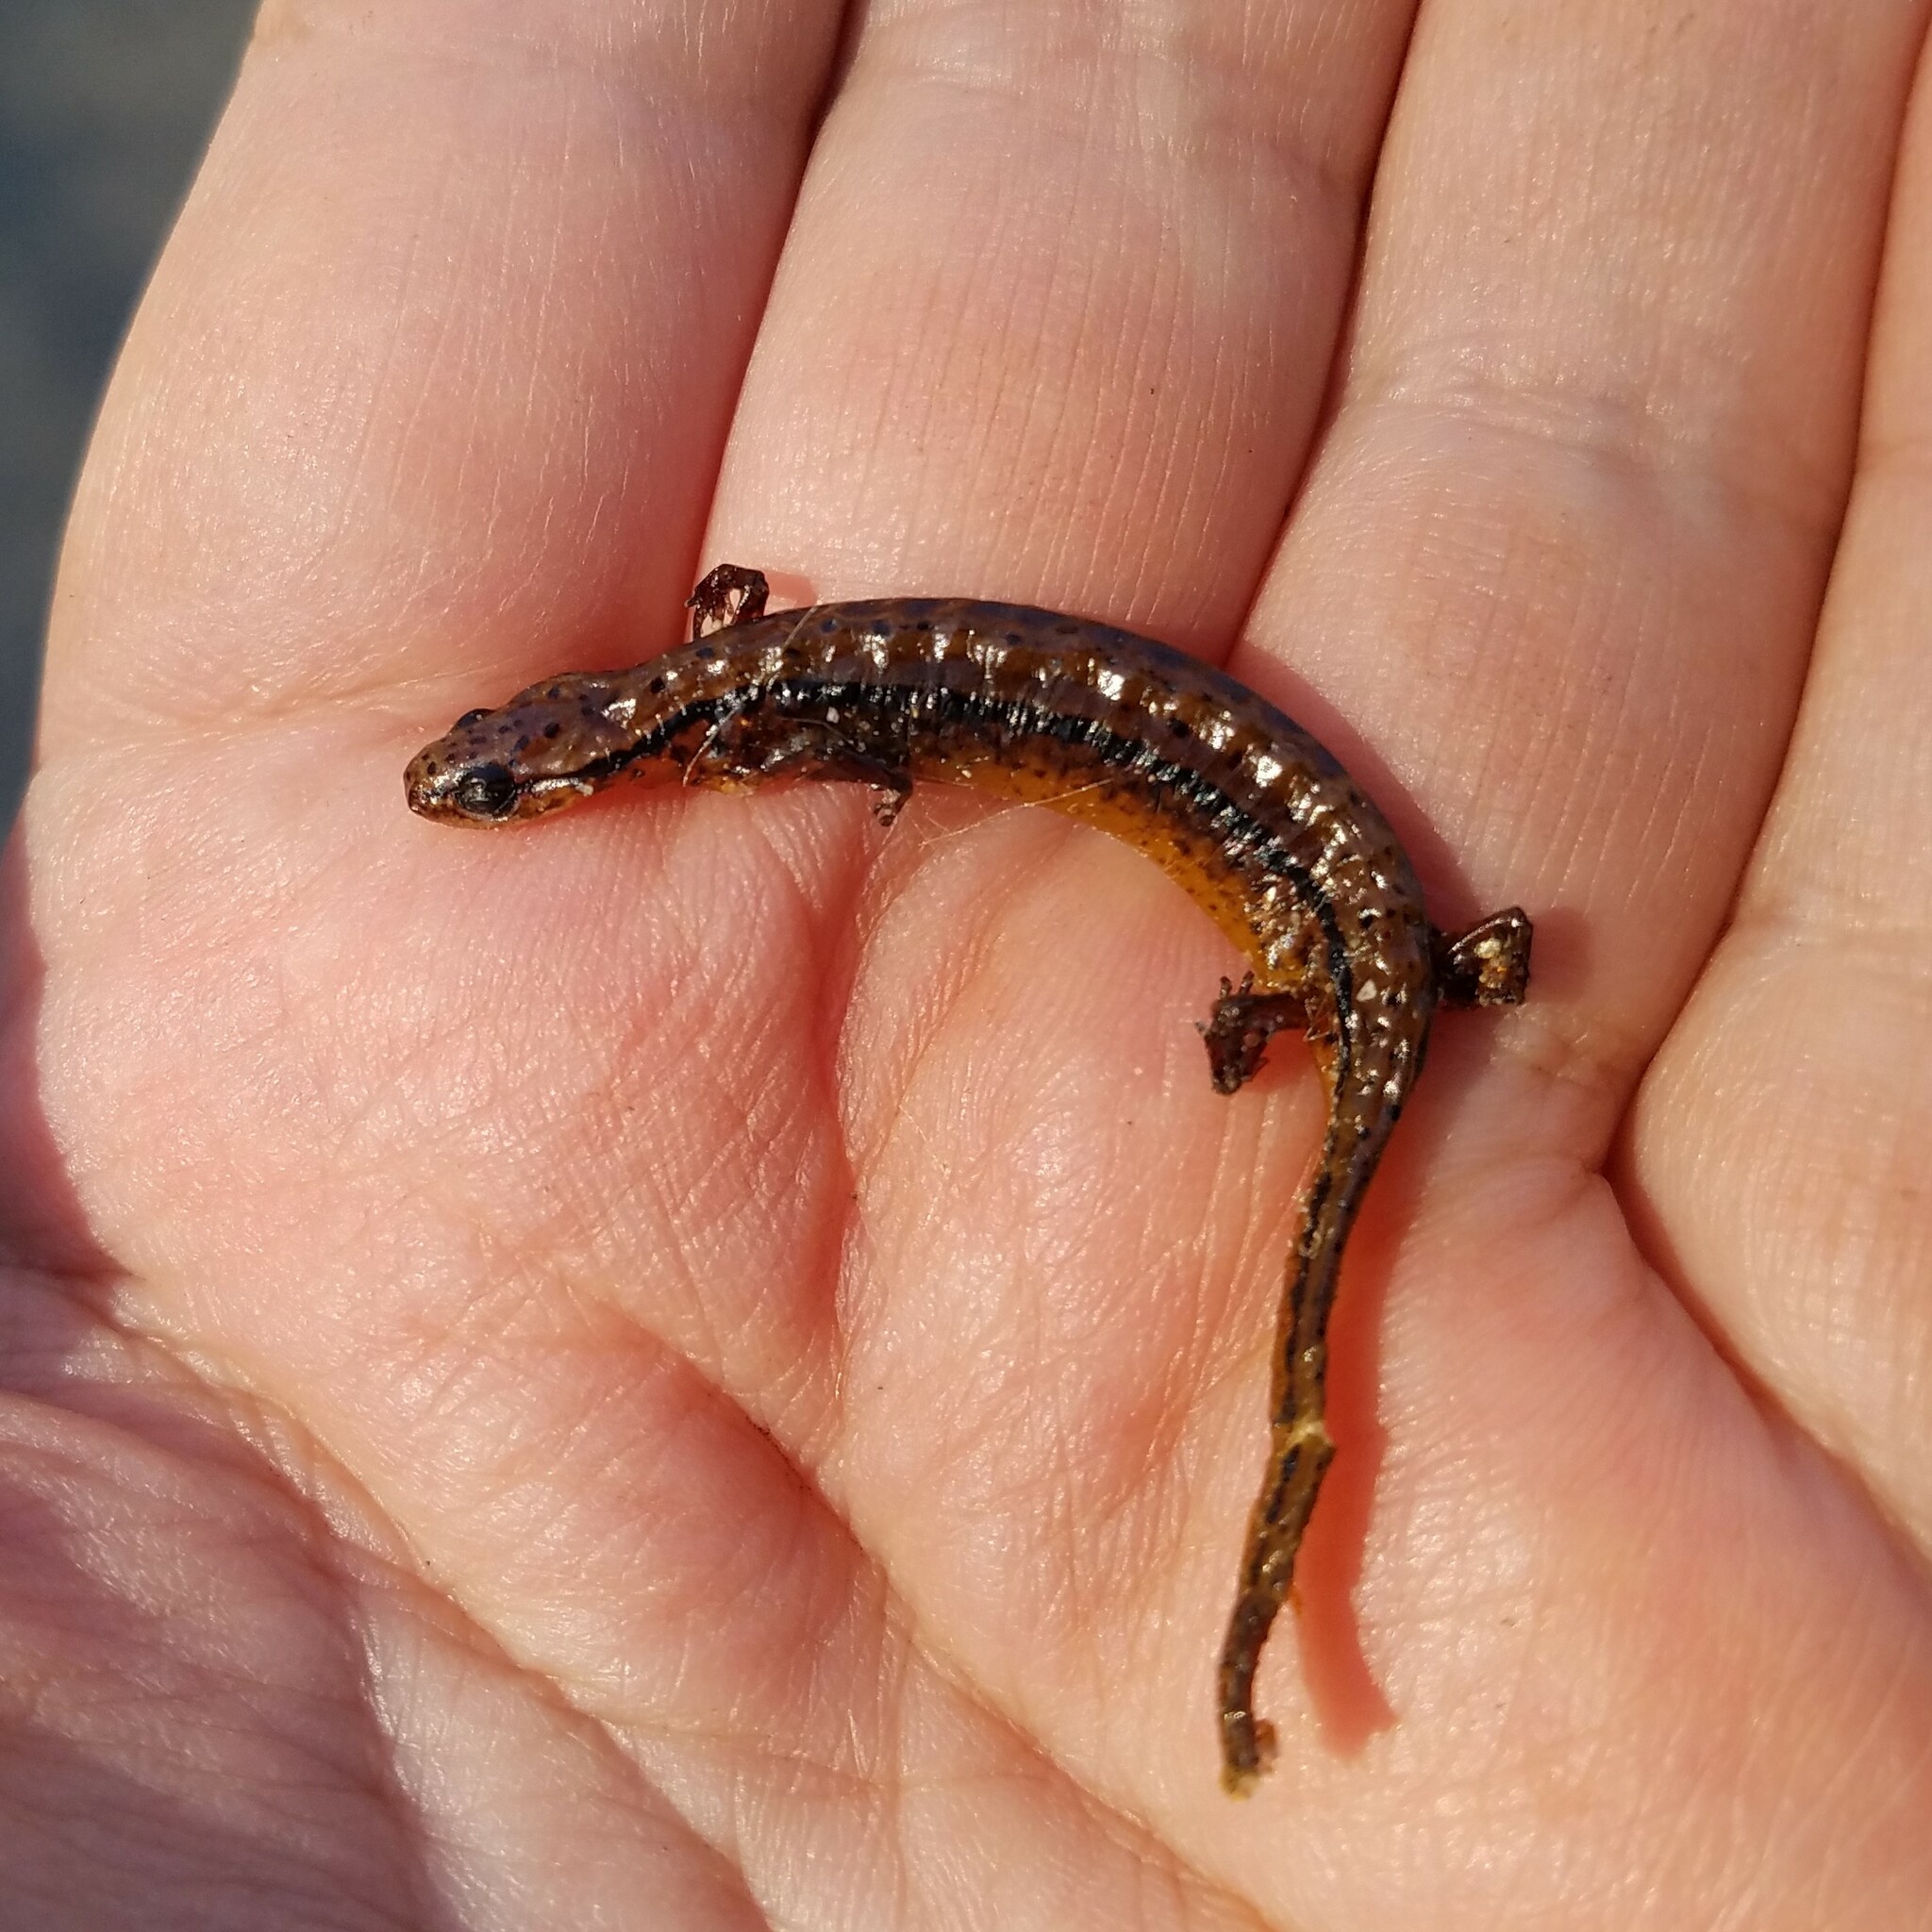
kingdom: Animalia
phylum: Chordata
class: Amphibia
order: Caudata
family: Plethodontidae
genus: Eurycea
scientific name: Eurycea wilderae
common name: Blue ridge two-lined salamander
